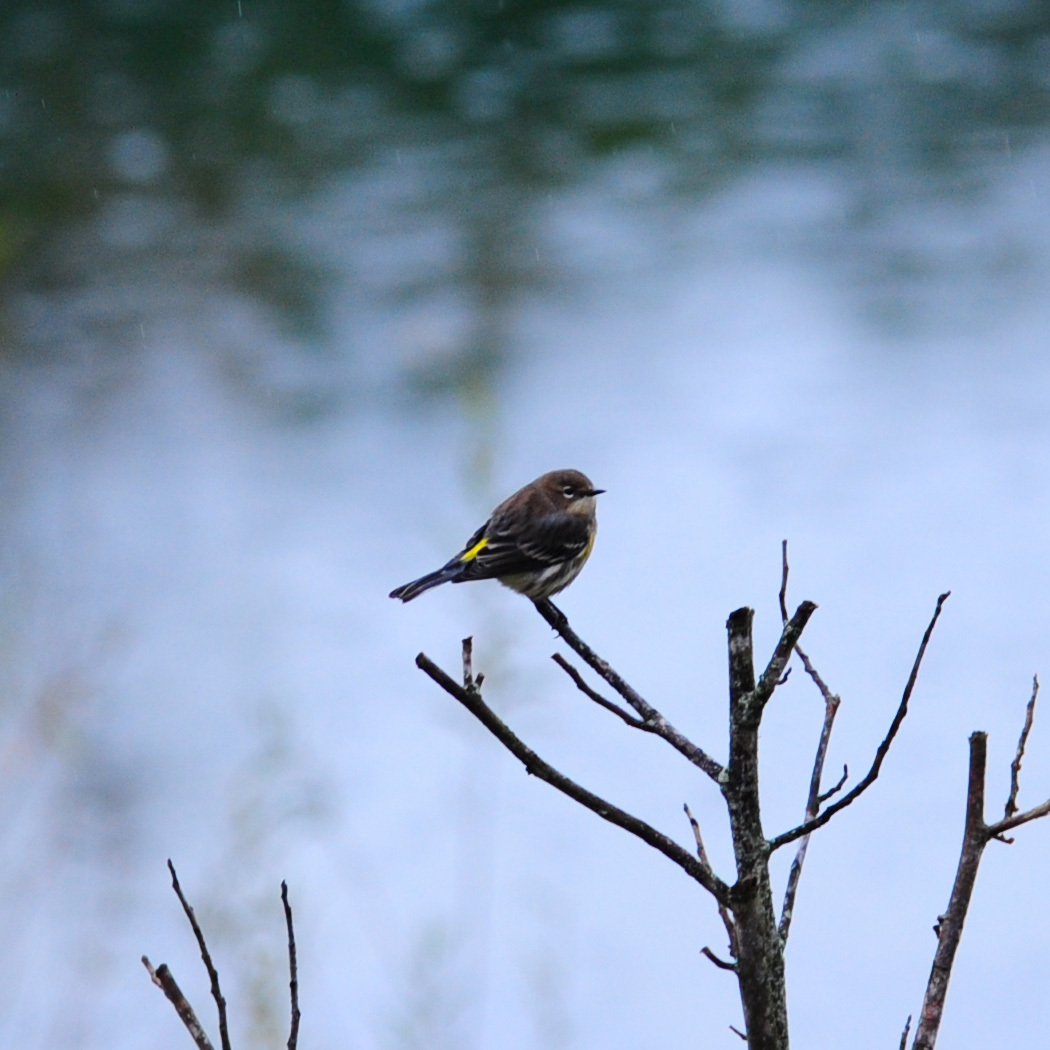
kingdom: Animalia
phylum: Chordata
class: Aves
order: Passeriformes
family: Parulidae
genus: Setophaga
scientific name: Setophaga coronata
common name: Myrtle warbler
